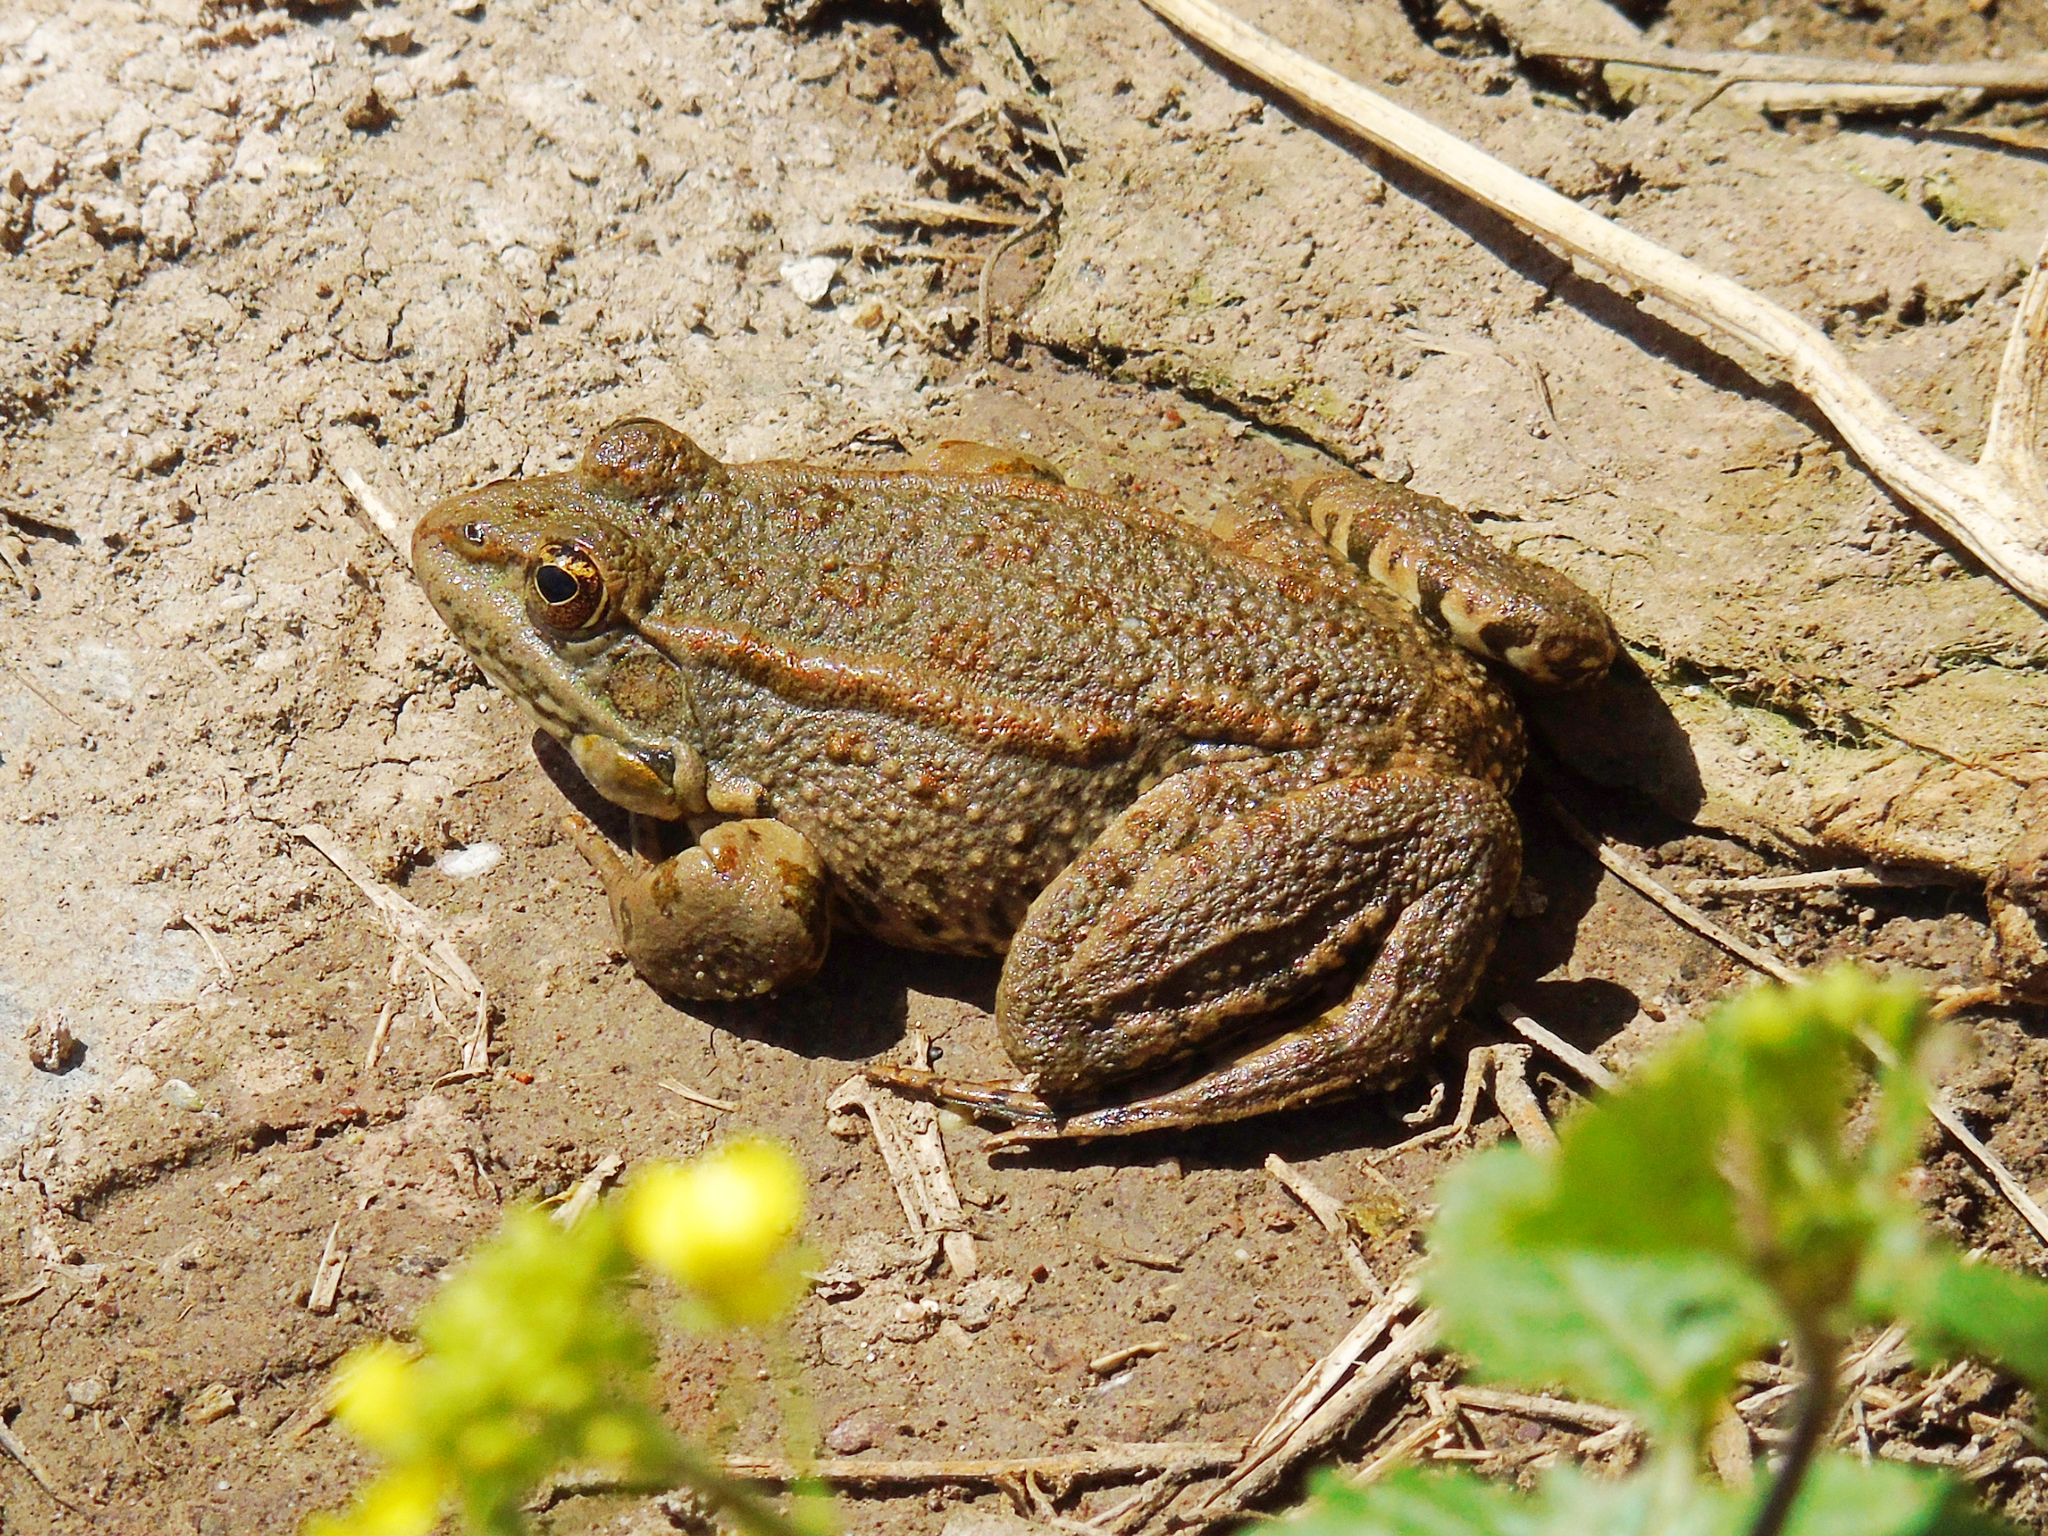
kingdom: Animalia
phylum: Chordata
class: Amphibia
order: Anura
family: Ranidae
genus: Pelophylax
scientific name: Pelophylax ridibundus
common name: Marsh frog
